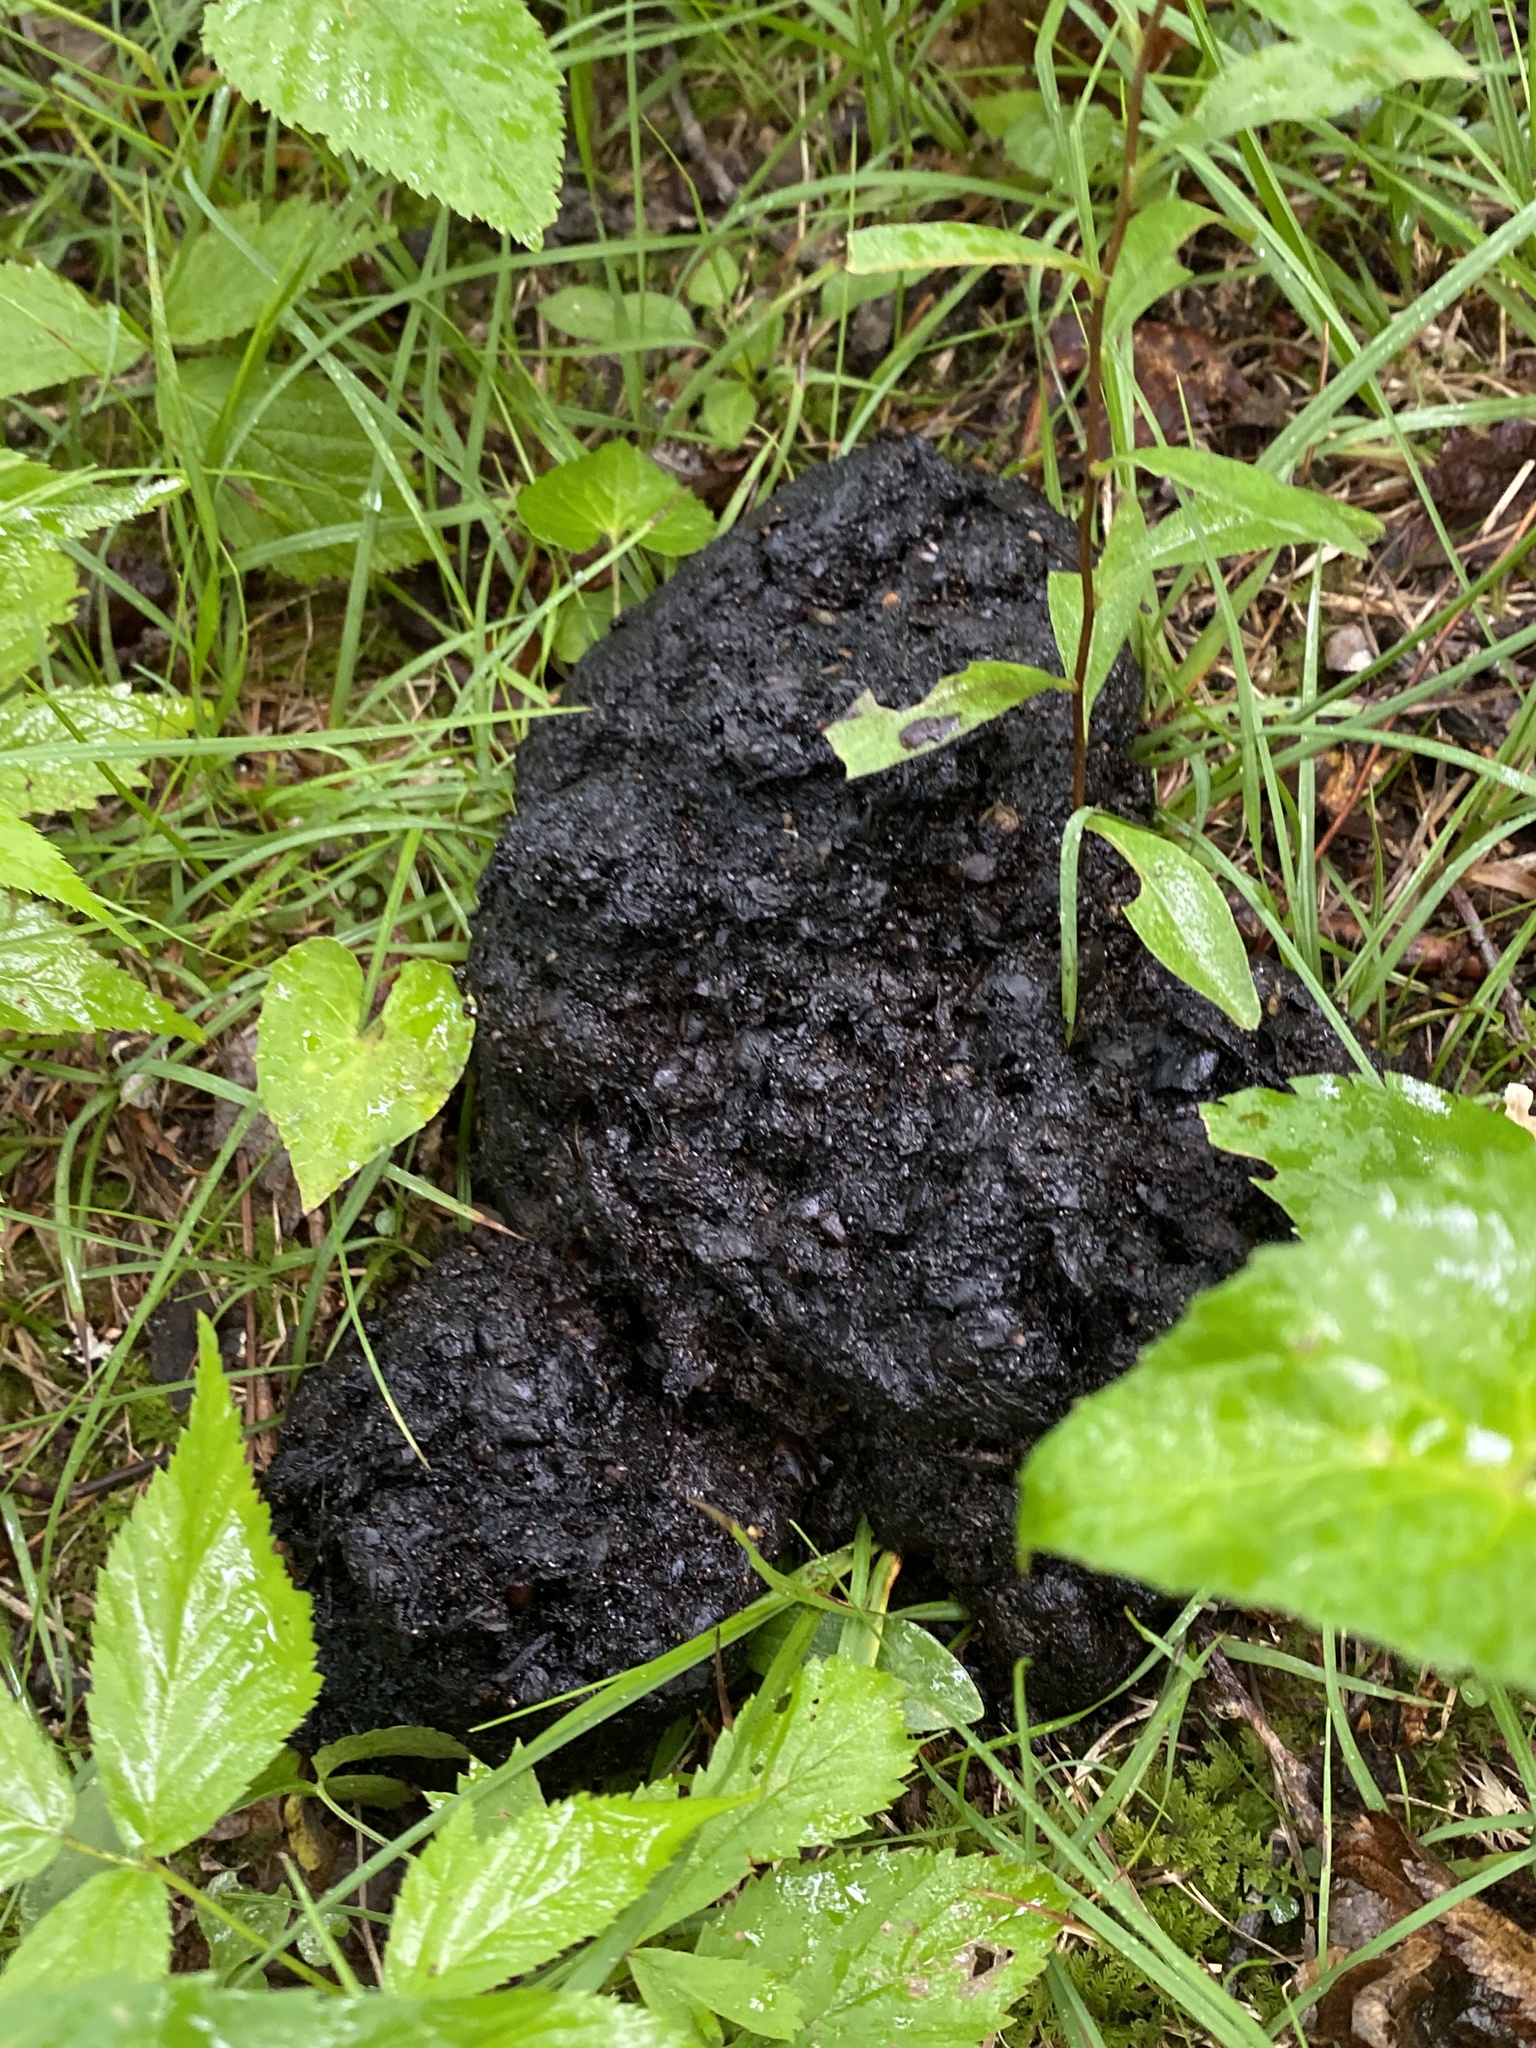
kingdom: Animalia
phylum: Chordata
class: Mammalia
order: Carnivora
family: Ursidae
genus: Ursus
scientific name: Ursus americanus
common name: American black bear
